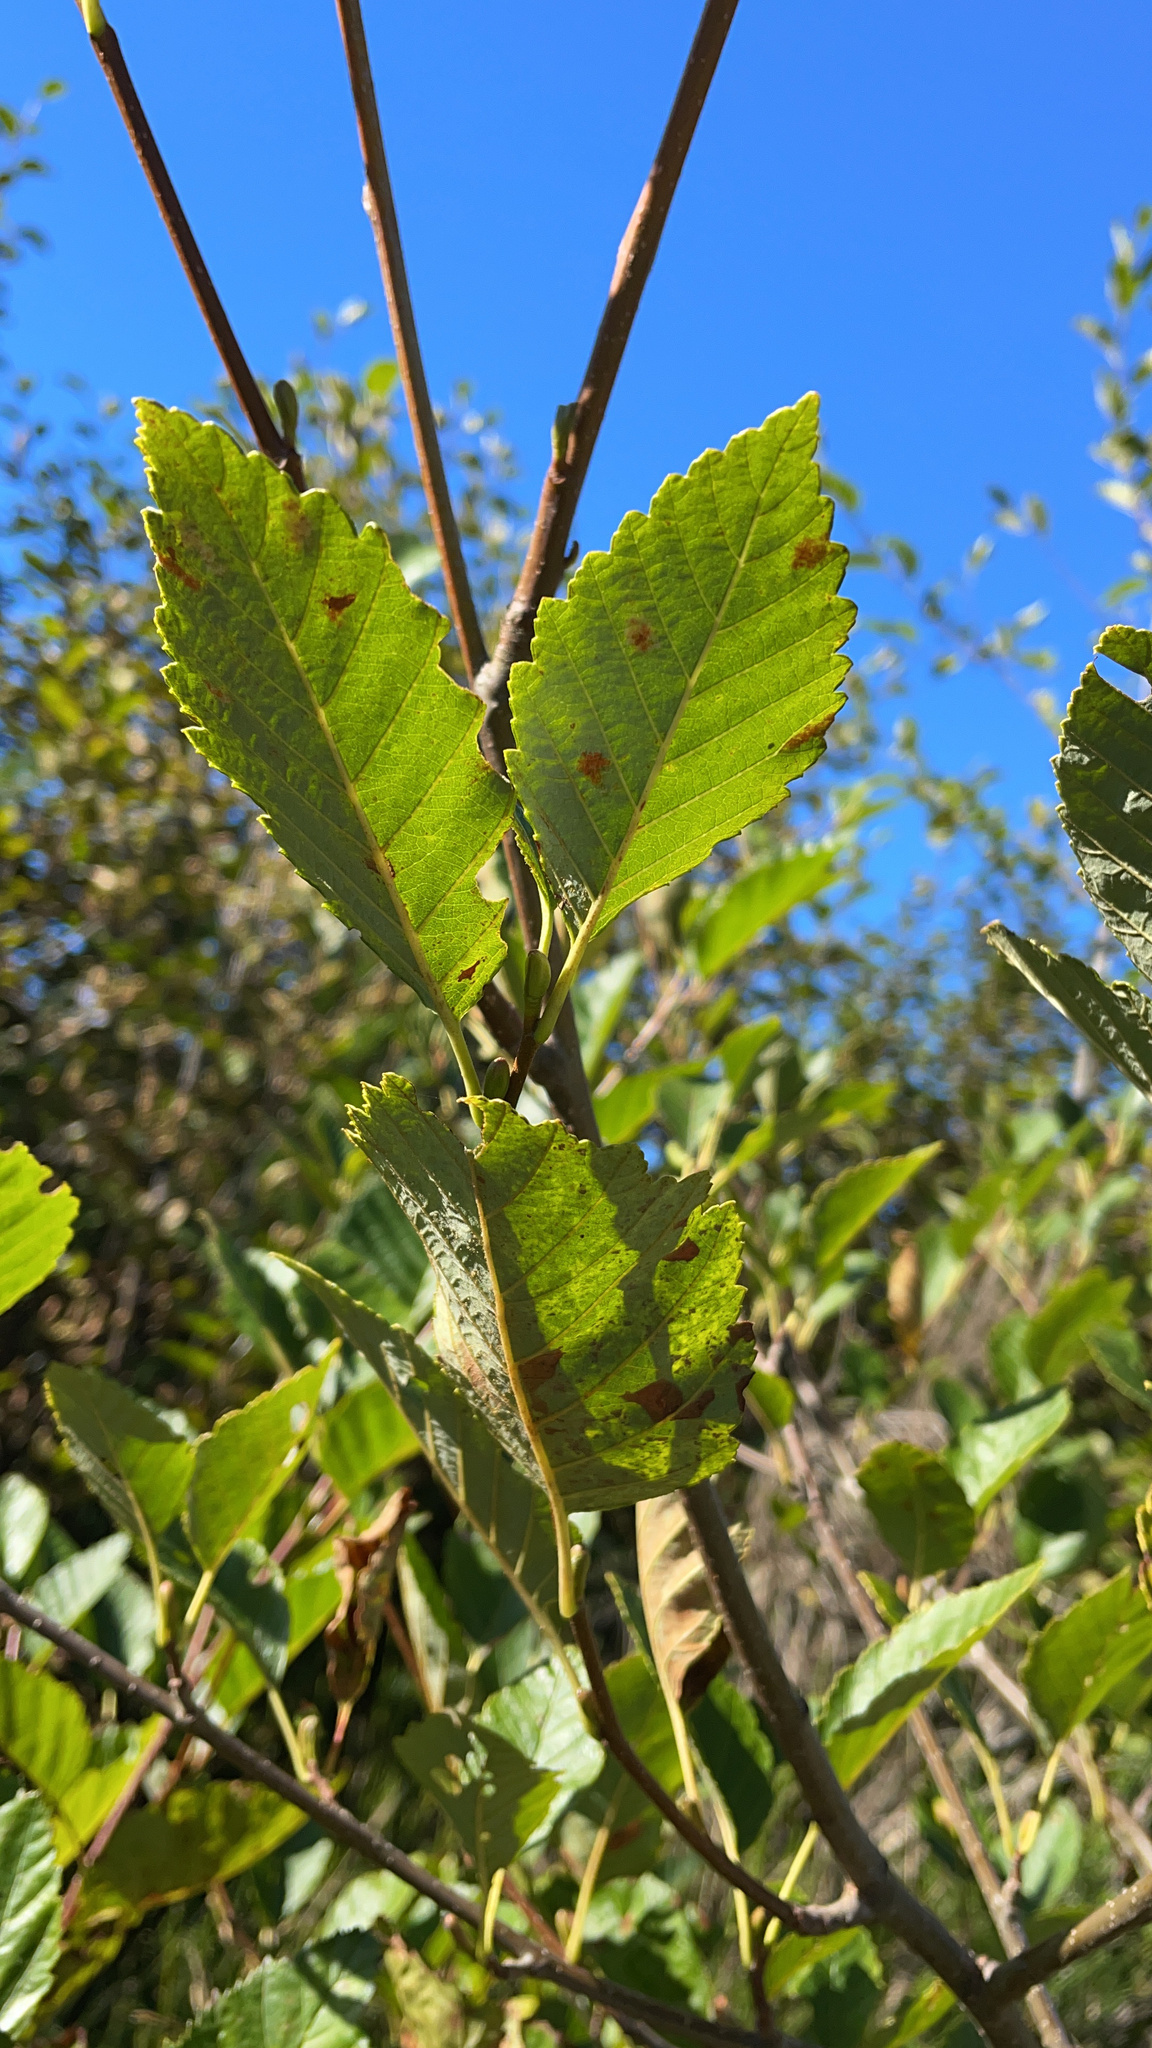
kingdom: Plantae
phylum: Tracheophyta
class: Magnoliopsida
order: Fagales
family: Betulaceae
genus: Alnus
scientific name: Alnus rubra
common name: Red alder
